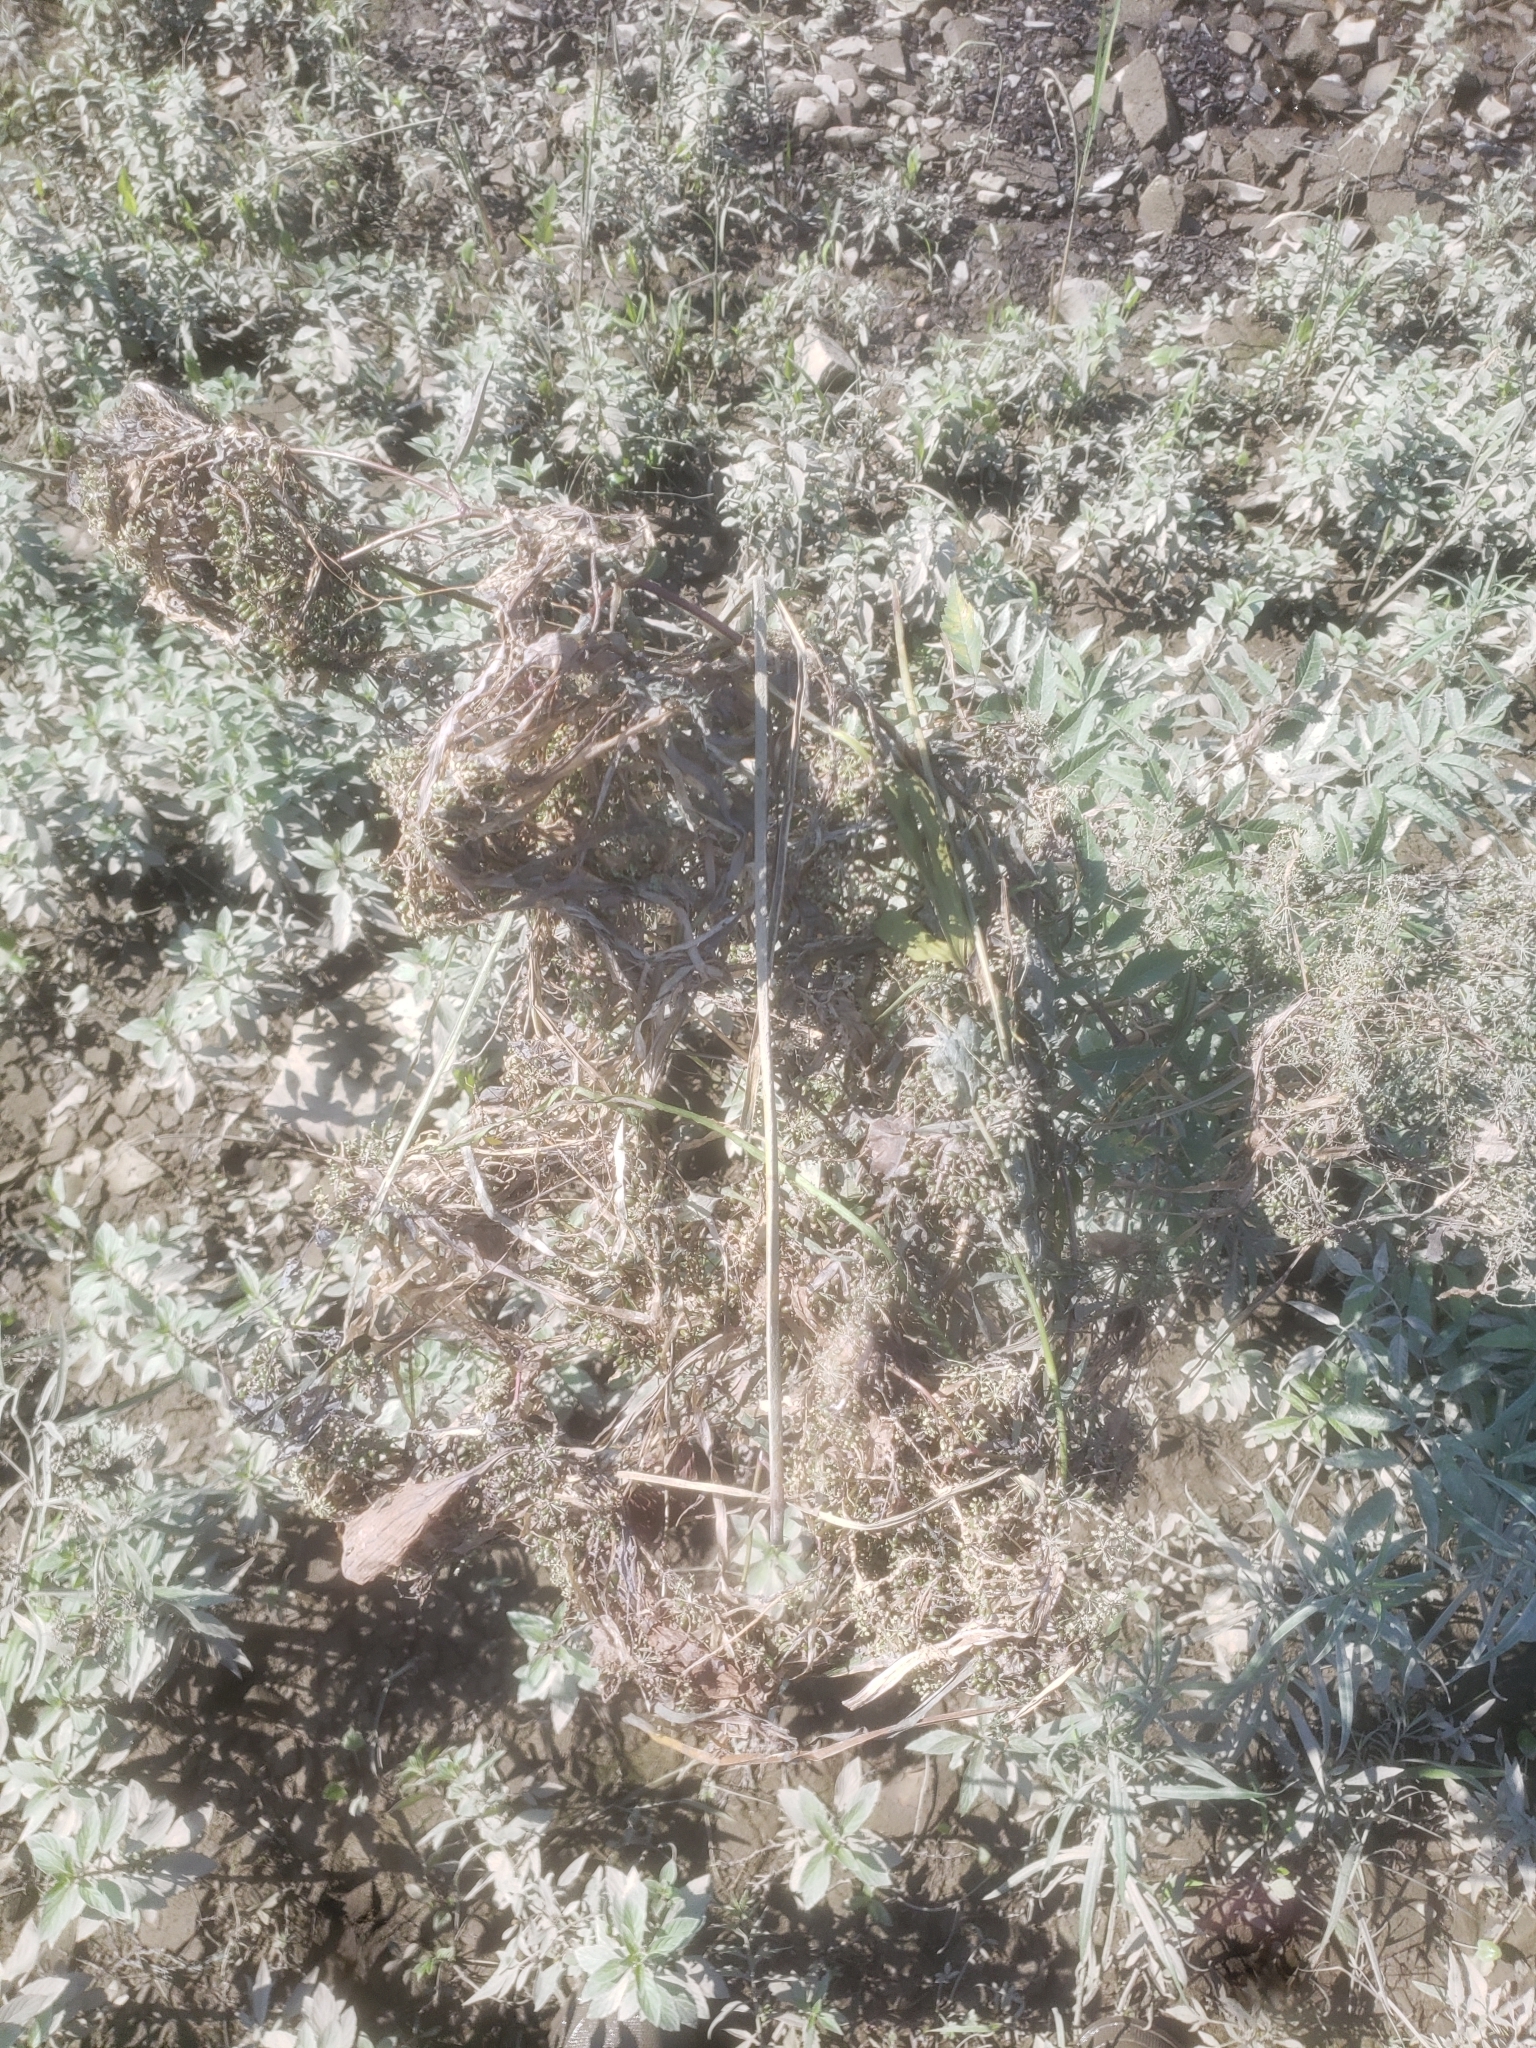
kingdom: Plantae
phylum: Tracheophyta
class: Magnoliopsida
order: Apiales
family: Apiaceae
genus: Cicuta
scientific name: Cicuta maculata
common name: Spotted cowbane
